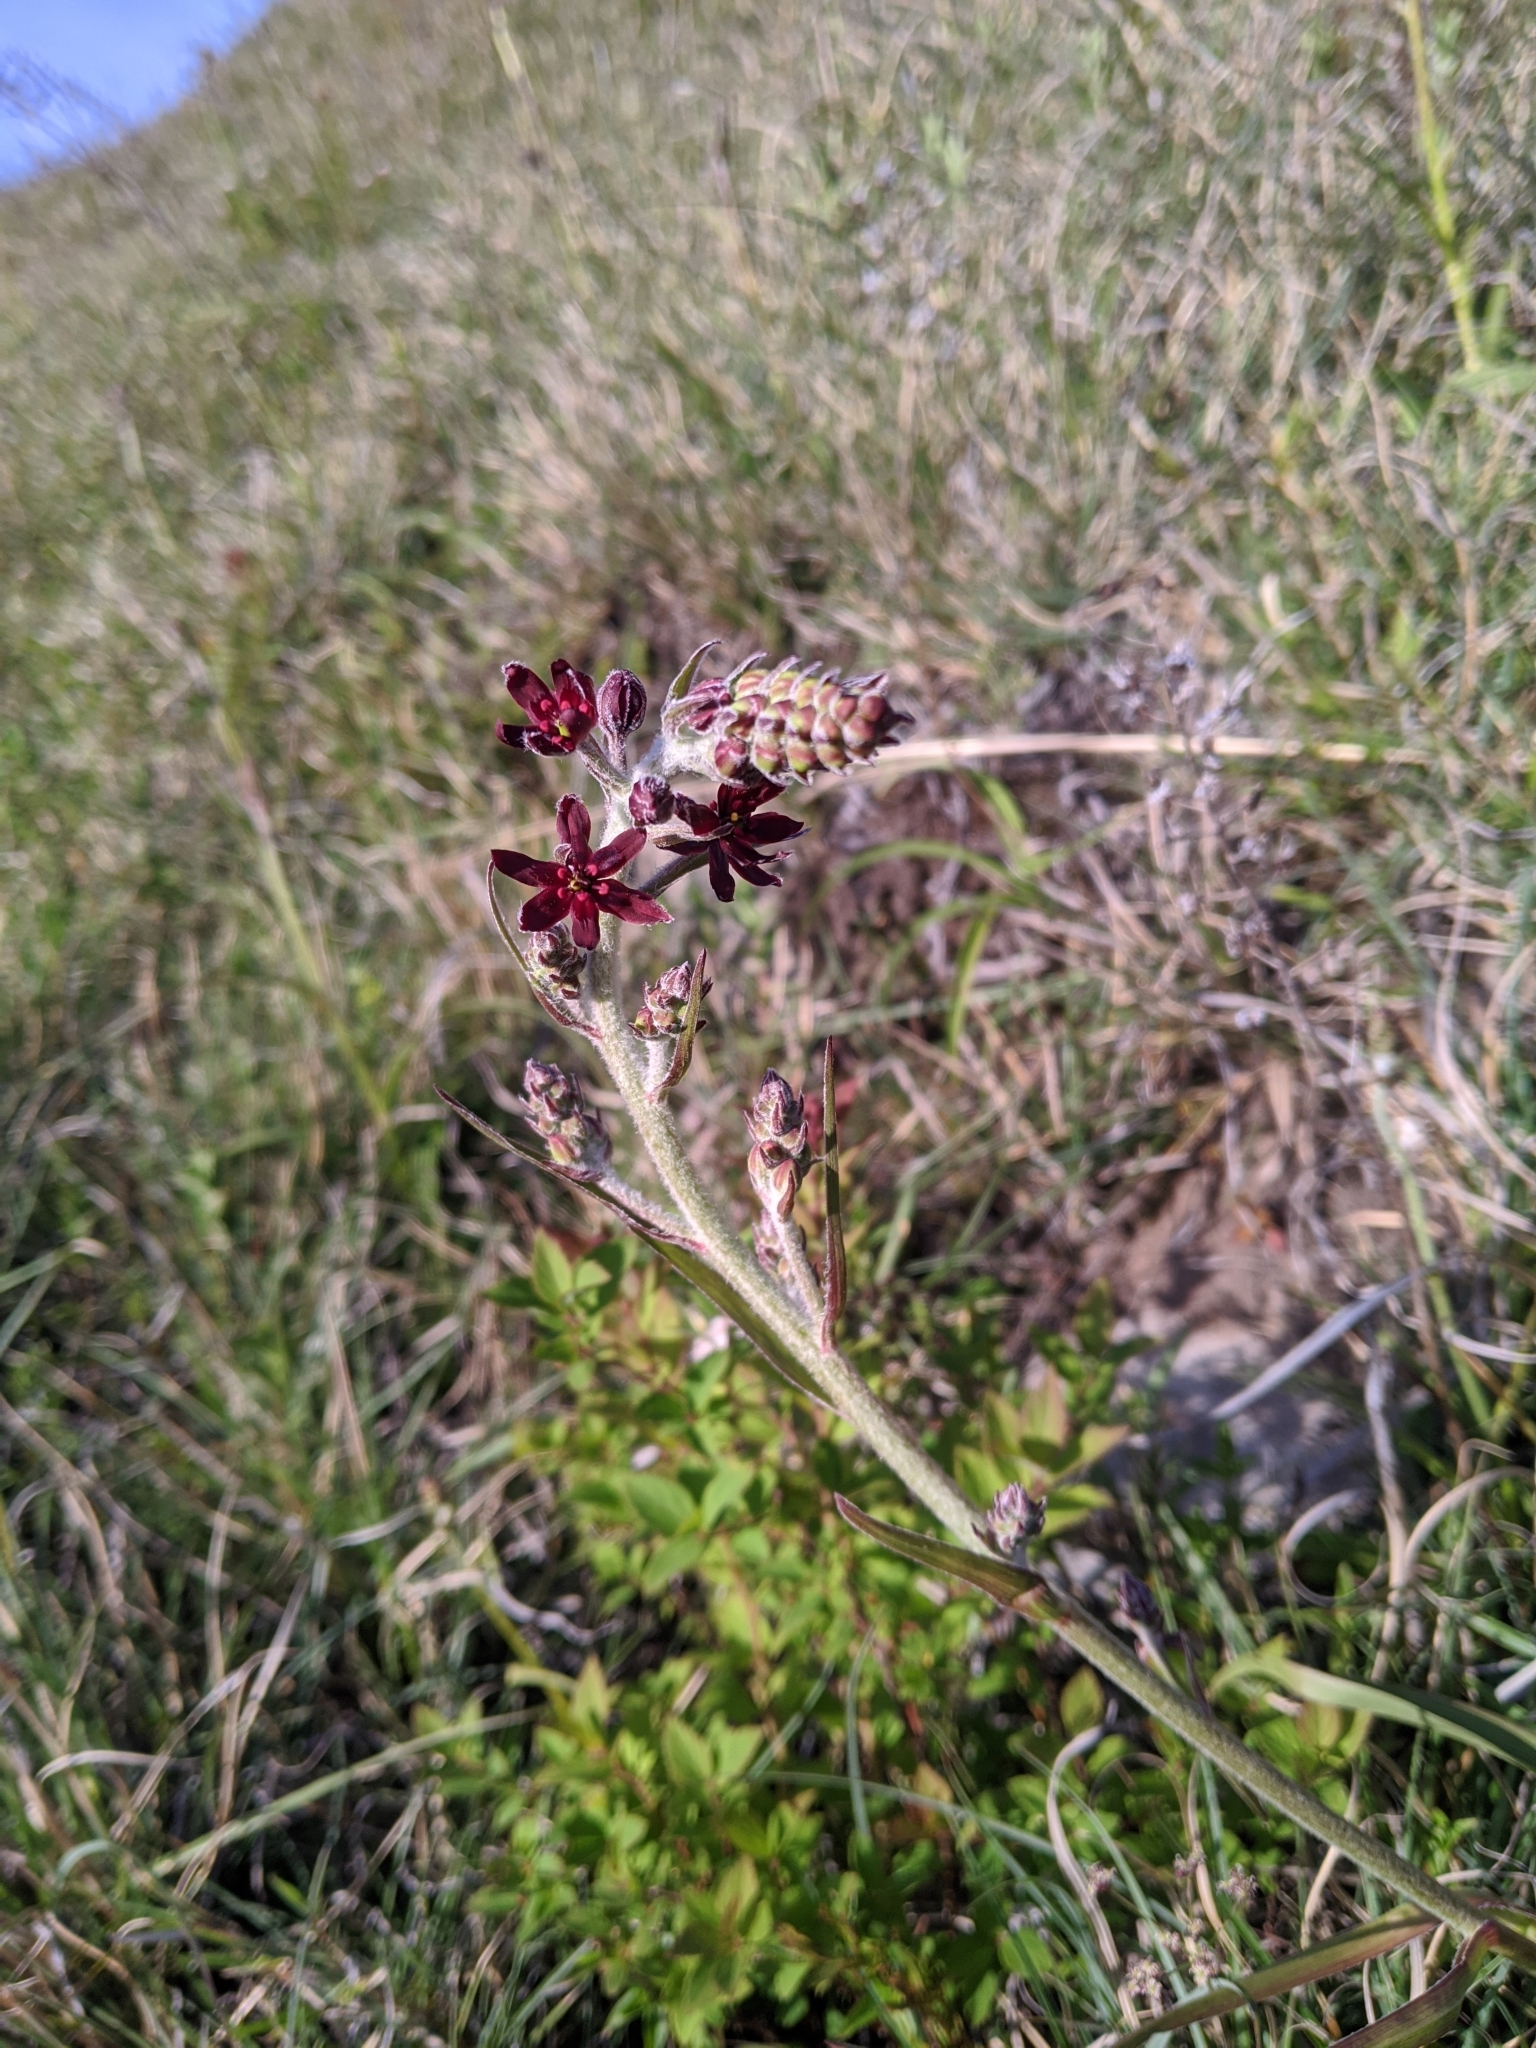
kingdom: Plantae
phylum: Tracheophyta
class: Liliopsida
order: Liliales
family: Melanthiaceae
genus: Veratrum
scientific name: Veratrum formosanum
